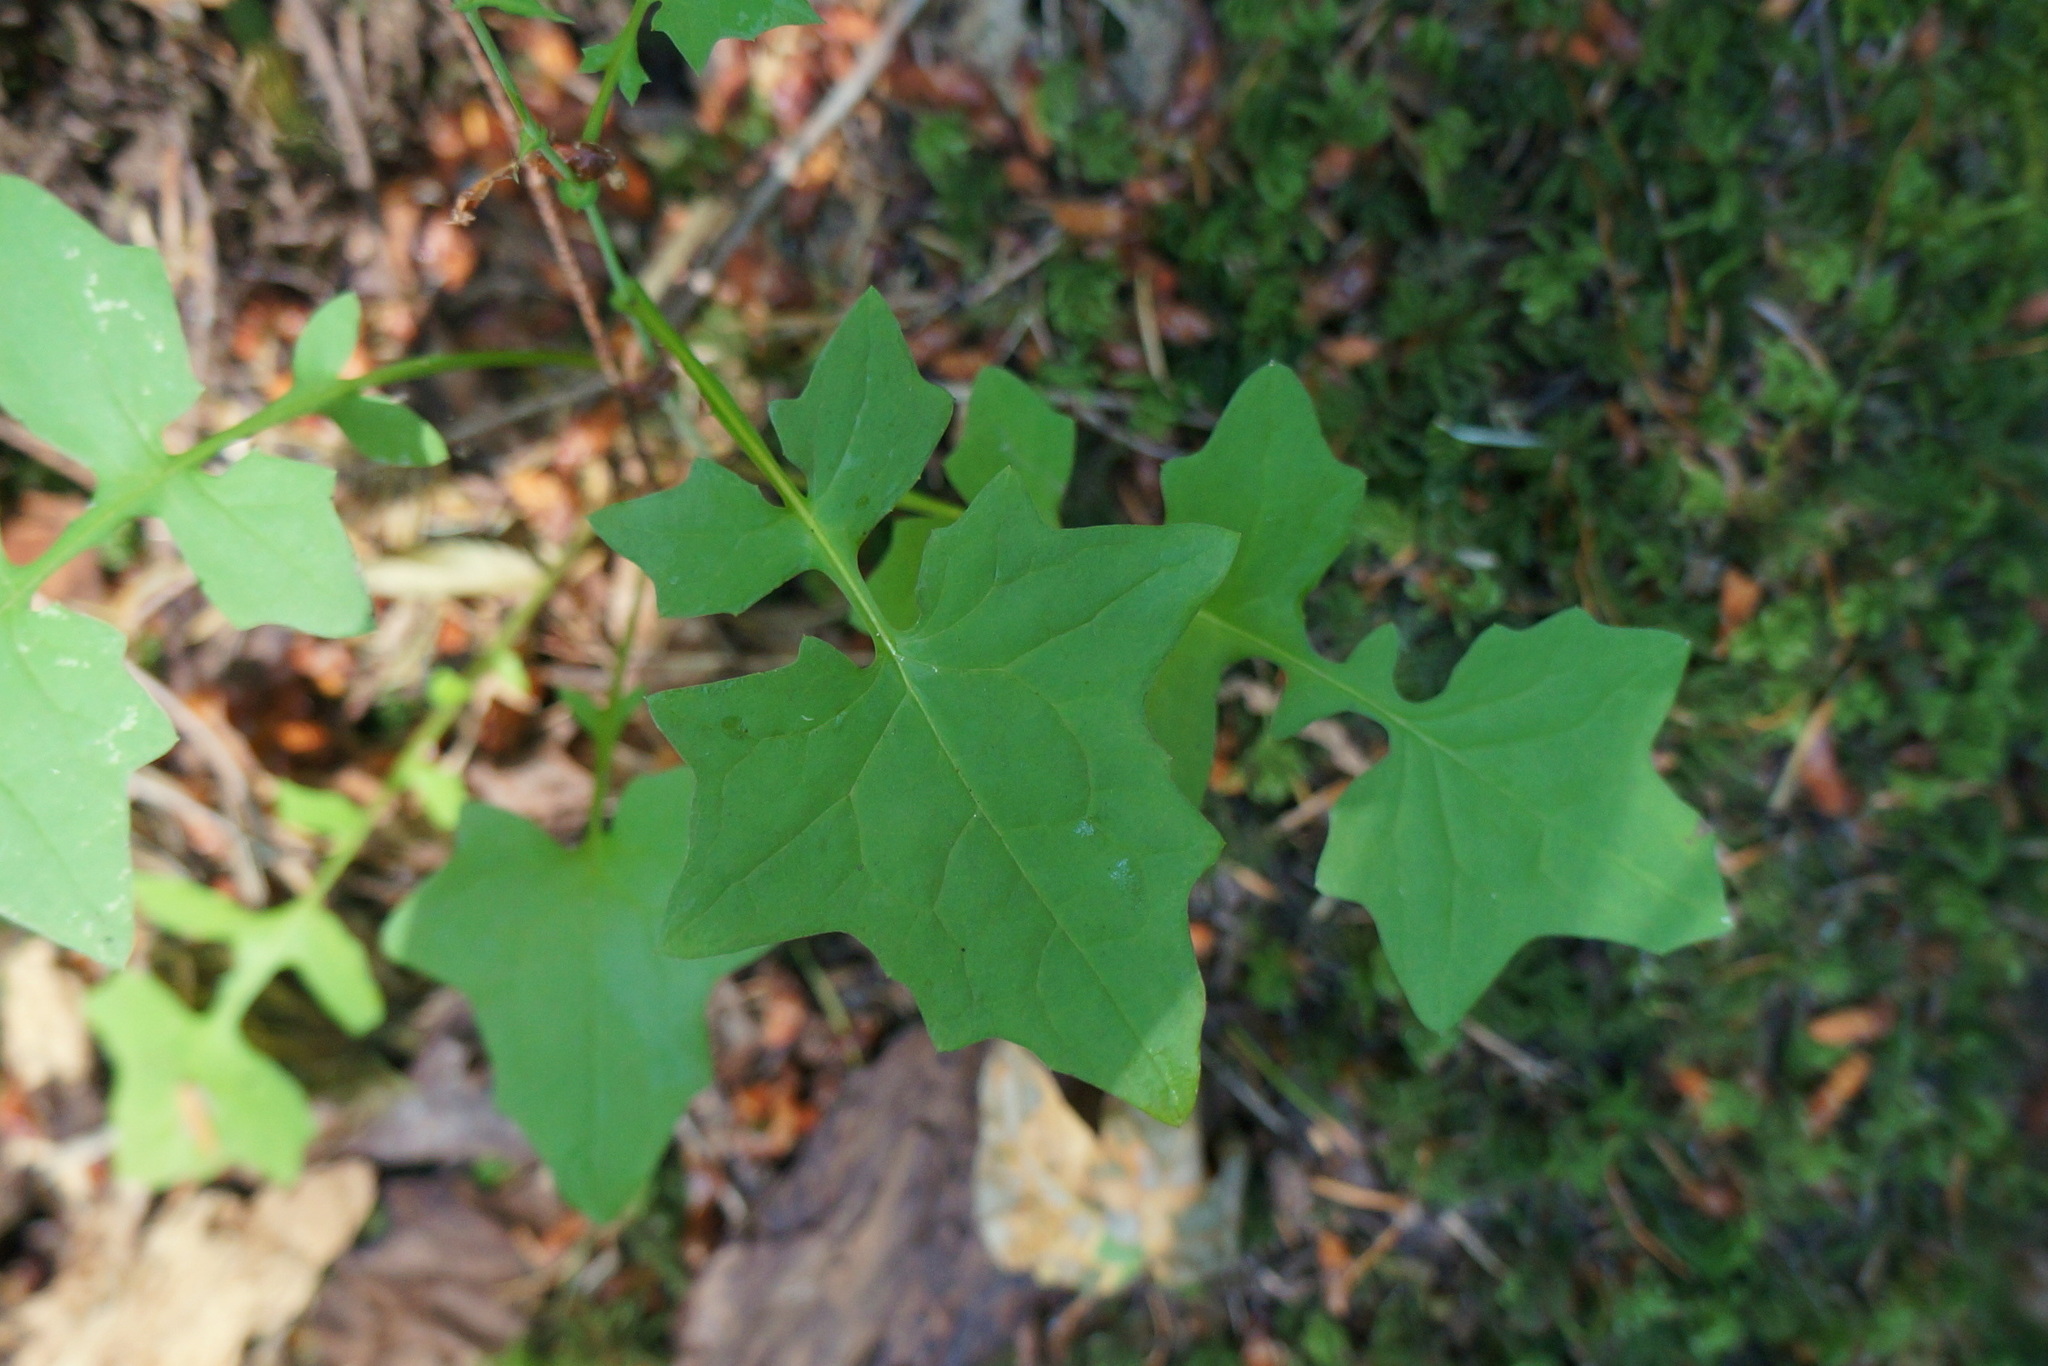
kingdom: Plantae
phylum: Tracheophyta
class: Magnoliopsida
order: Asterales
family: Asteraceae
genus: Mycelis
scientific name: Mycelis muralis
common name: Wall lettuce
